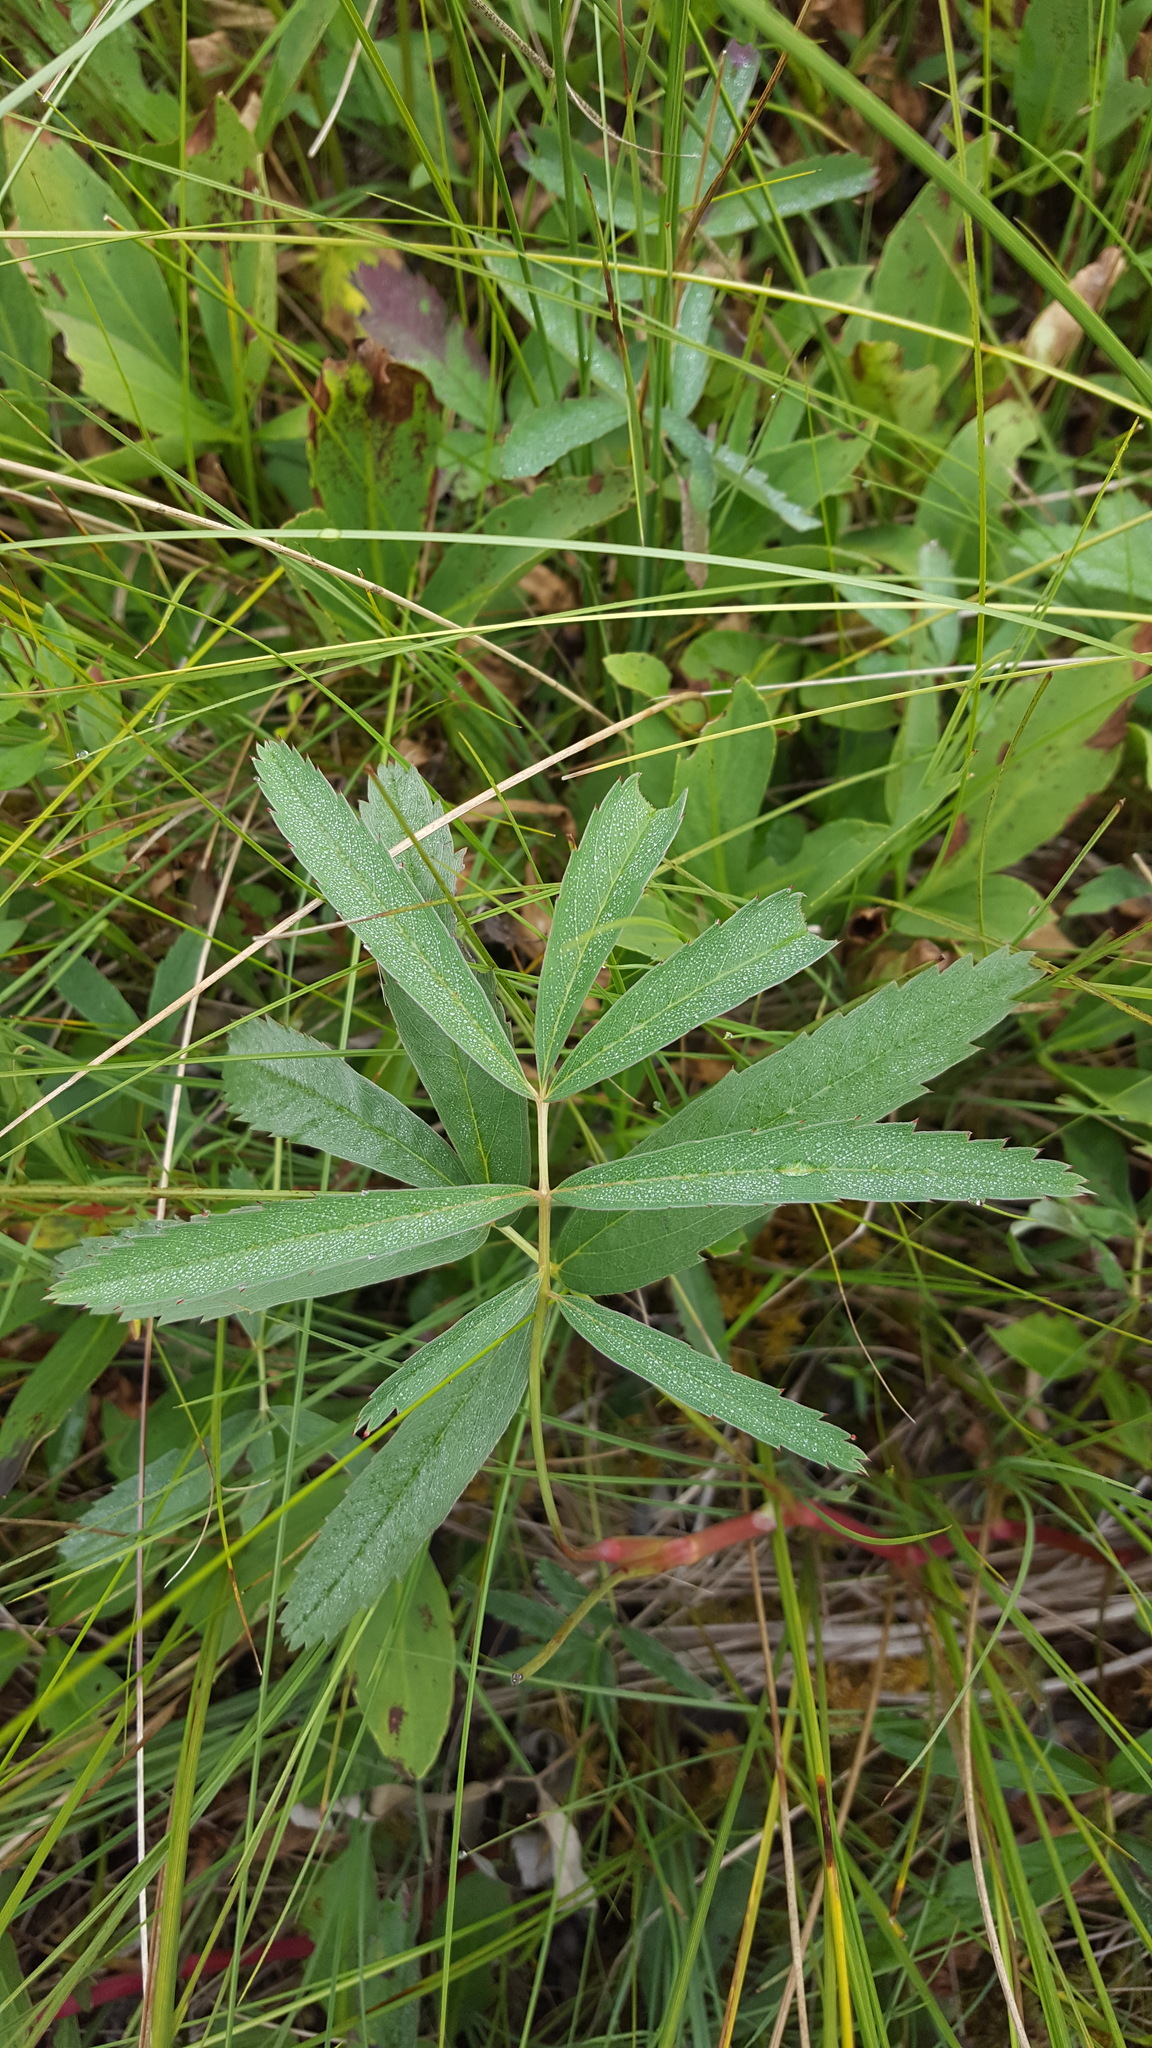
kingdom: Plantae
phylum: Tracheophyta
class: Magnoliopsida
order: Rosales
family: Rosaceae
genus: Comarum
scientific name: Comarum palustre
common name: Marsh cinquefoil
